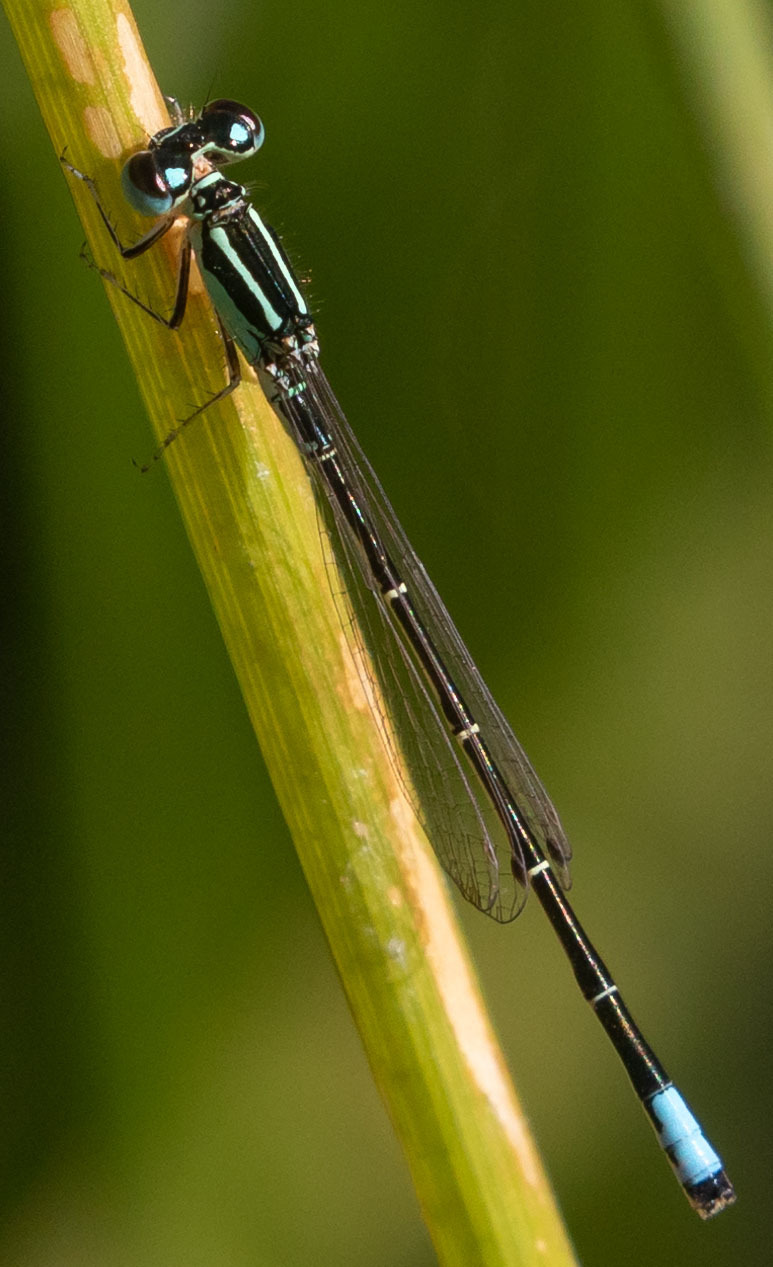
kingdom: Animalia
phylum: Arthropoda
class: Insecta
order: Odonata
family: Coenagrionidae
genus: Ischnura
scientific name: Ischnura perparva
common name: Western forktail
